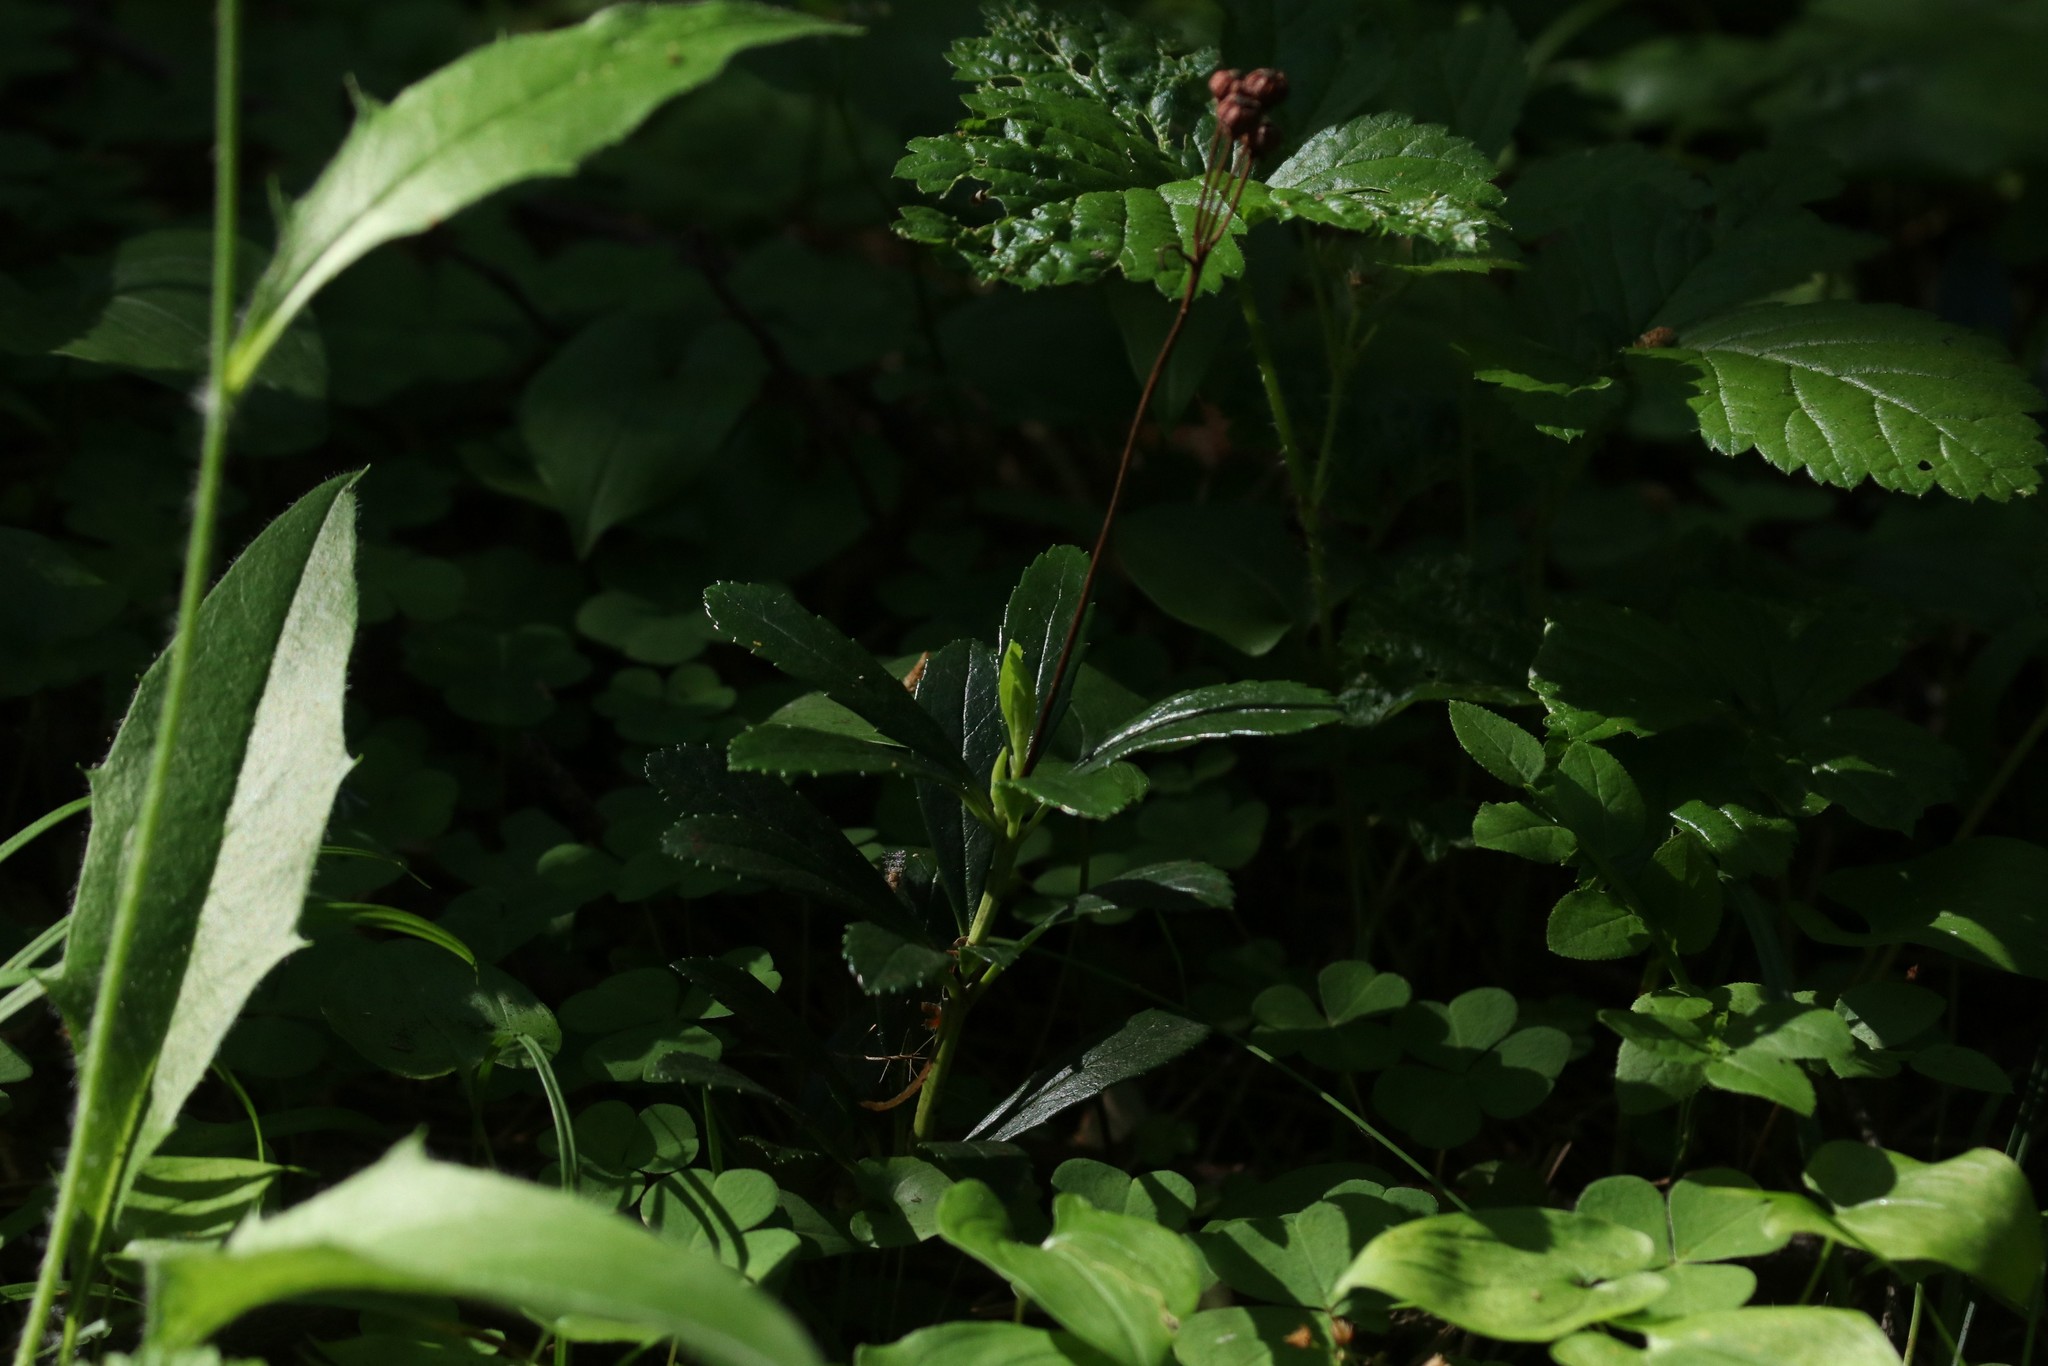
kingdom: Plantae
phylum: Tracheophyta
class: Magnoliopsida
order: Ericales
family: Ericaceae
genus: Chimaphila
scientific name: Chimaphila umbellata
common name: Pipsissewa
